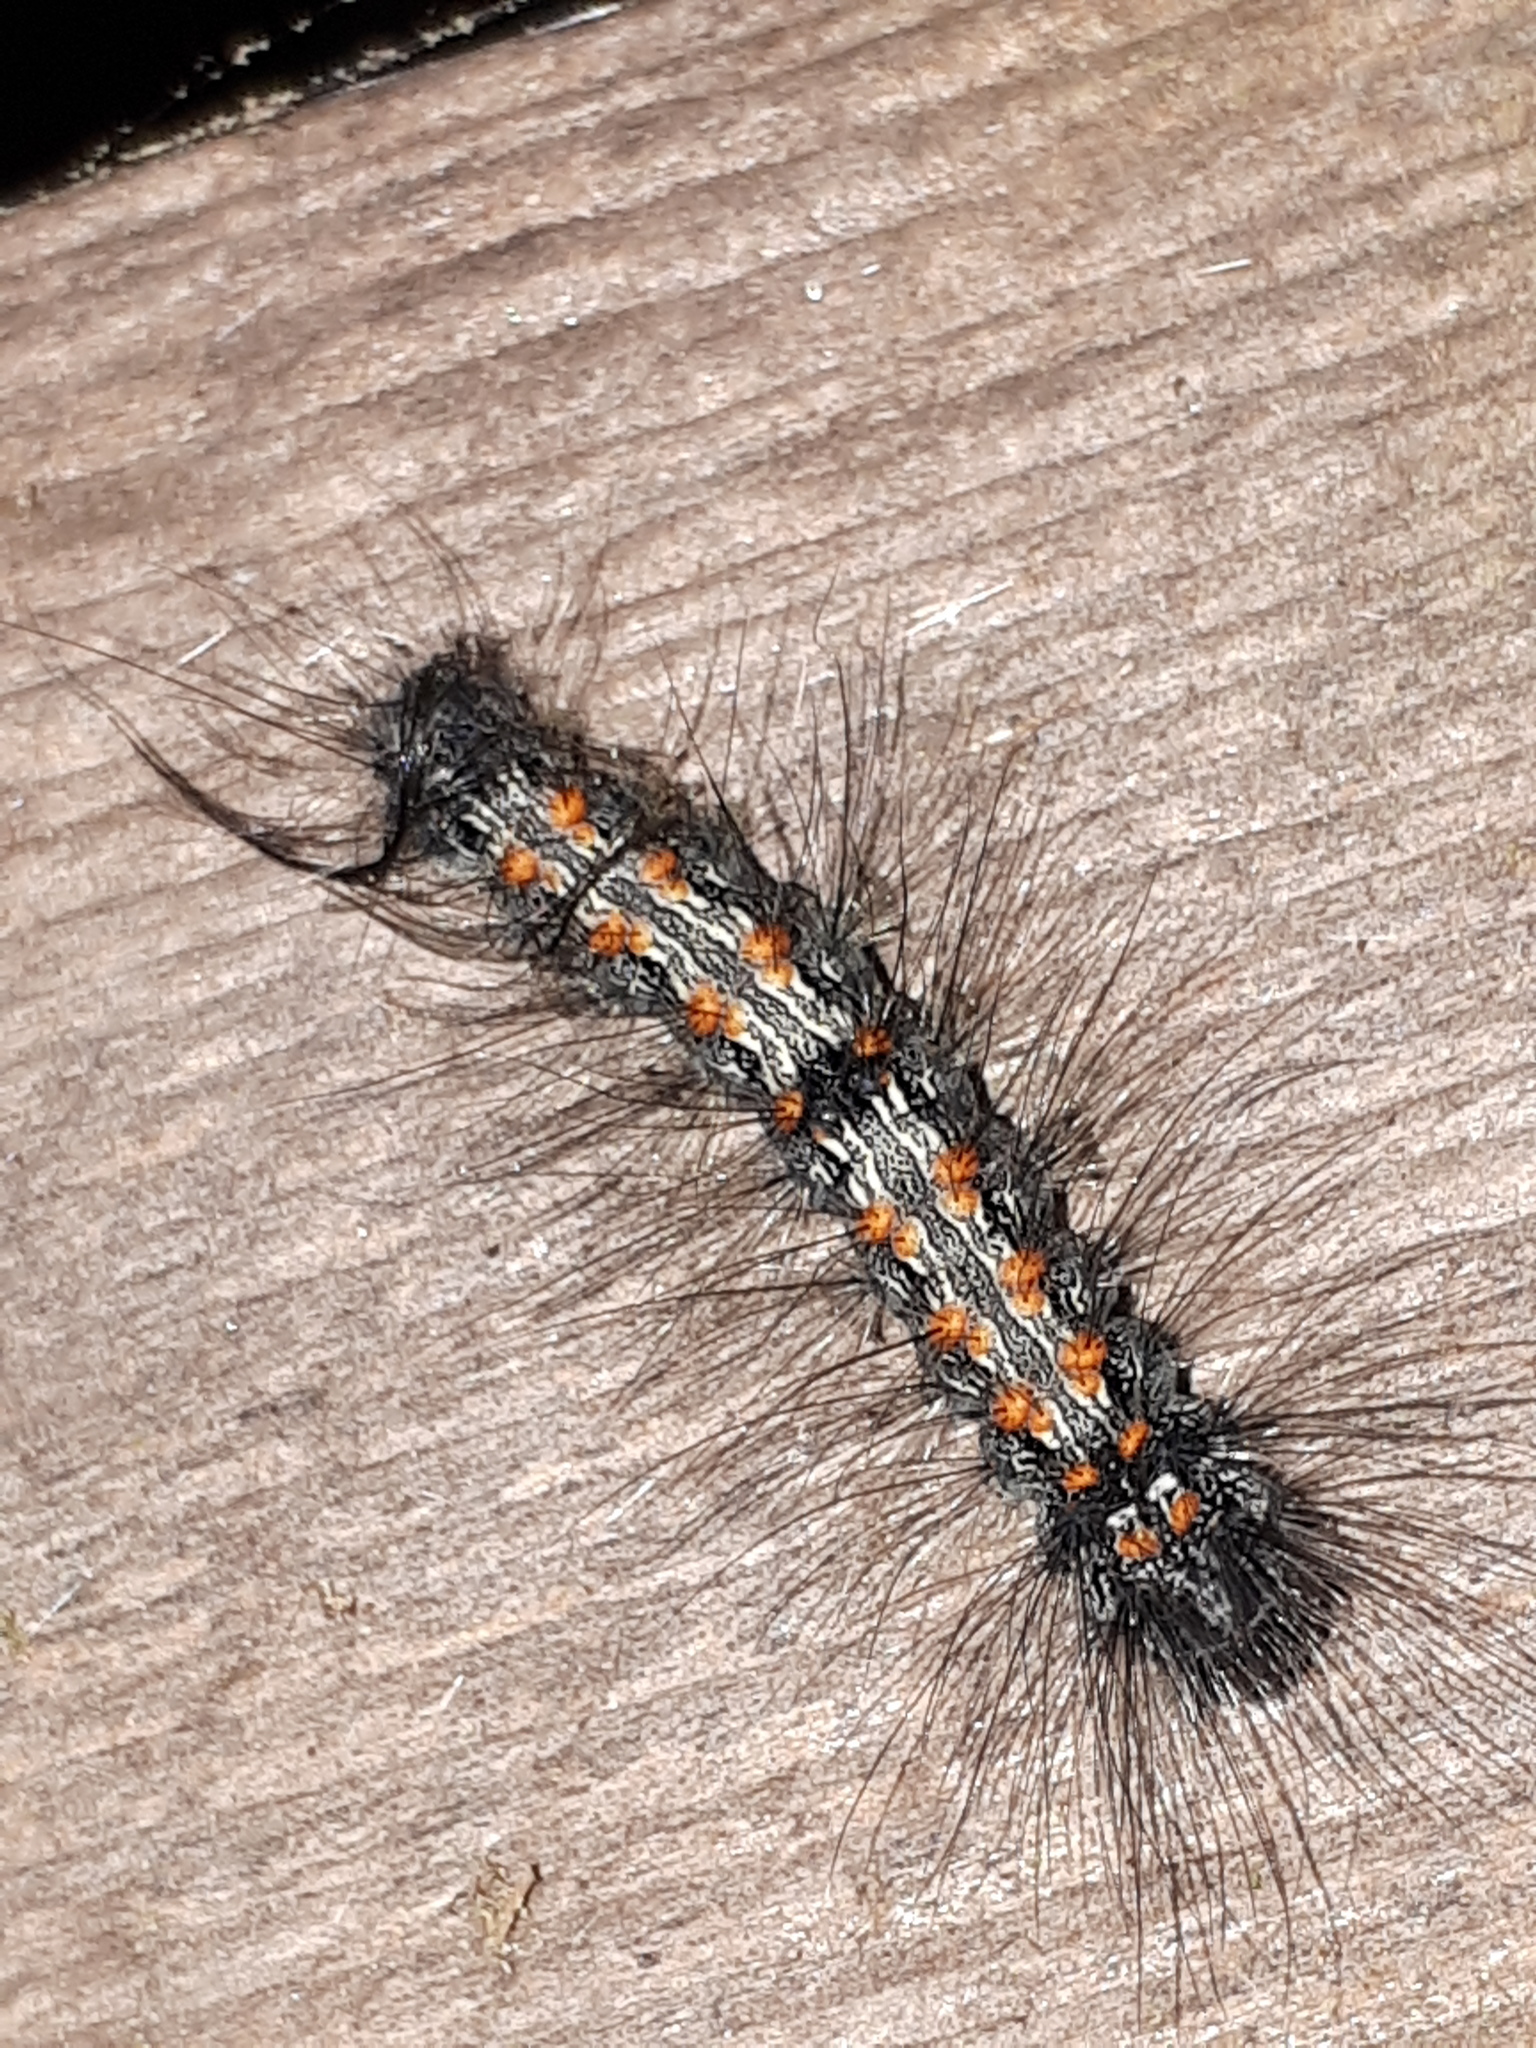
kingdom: Animalia
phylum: Arthropoda
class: Insecta
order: Lepidoptera
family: Erebidae
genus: Lithosia
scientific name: Lithosia quadra
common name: Four-spotted footman
